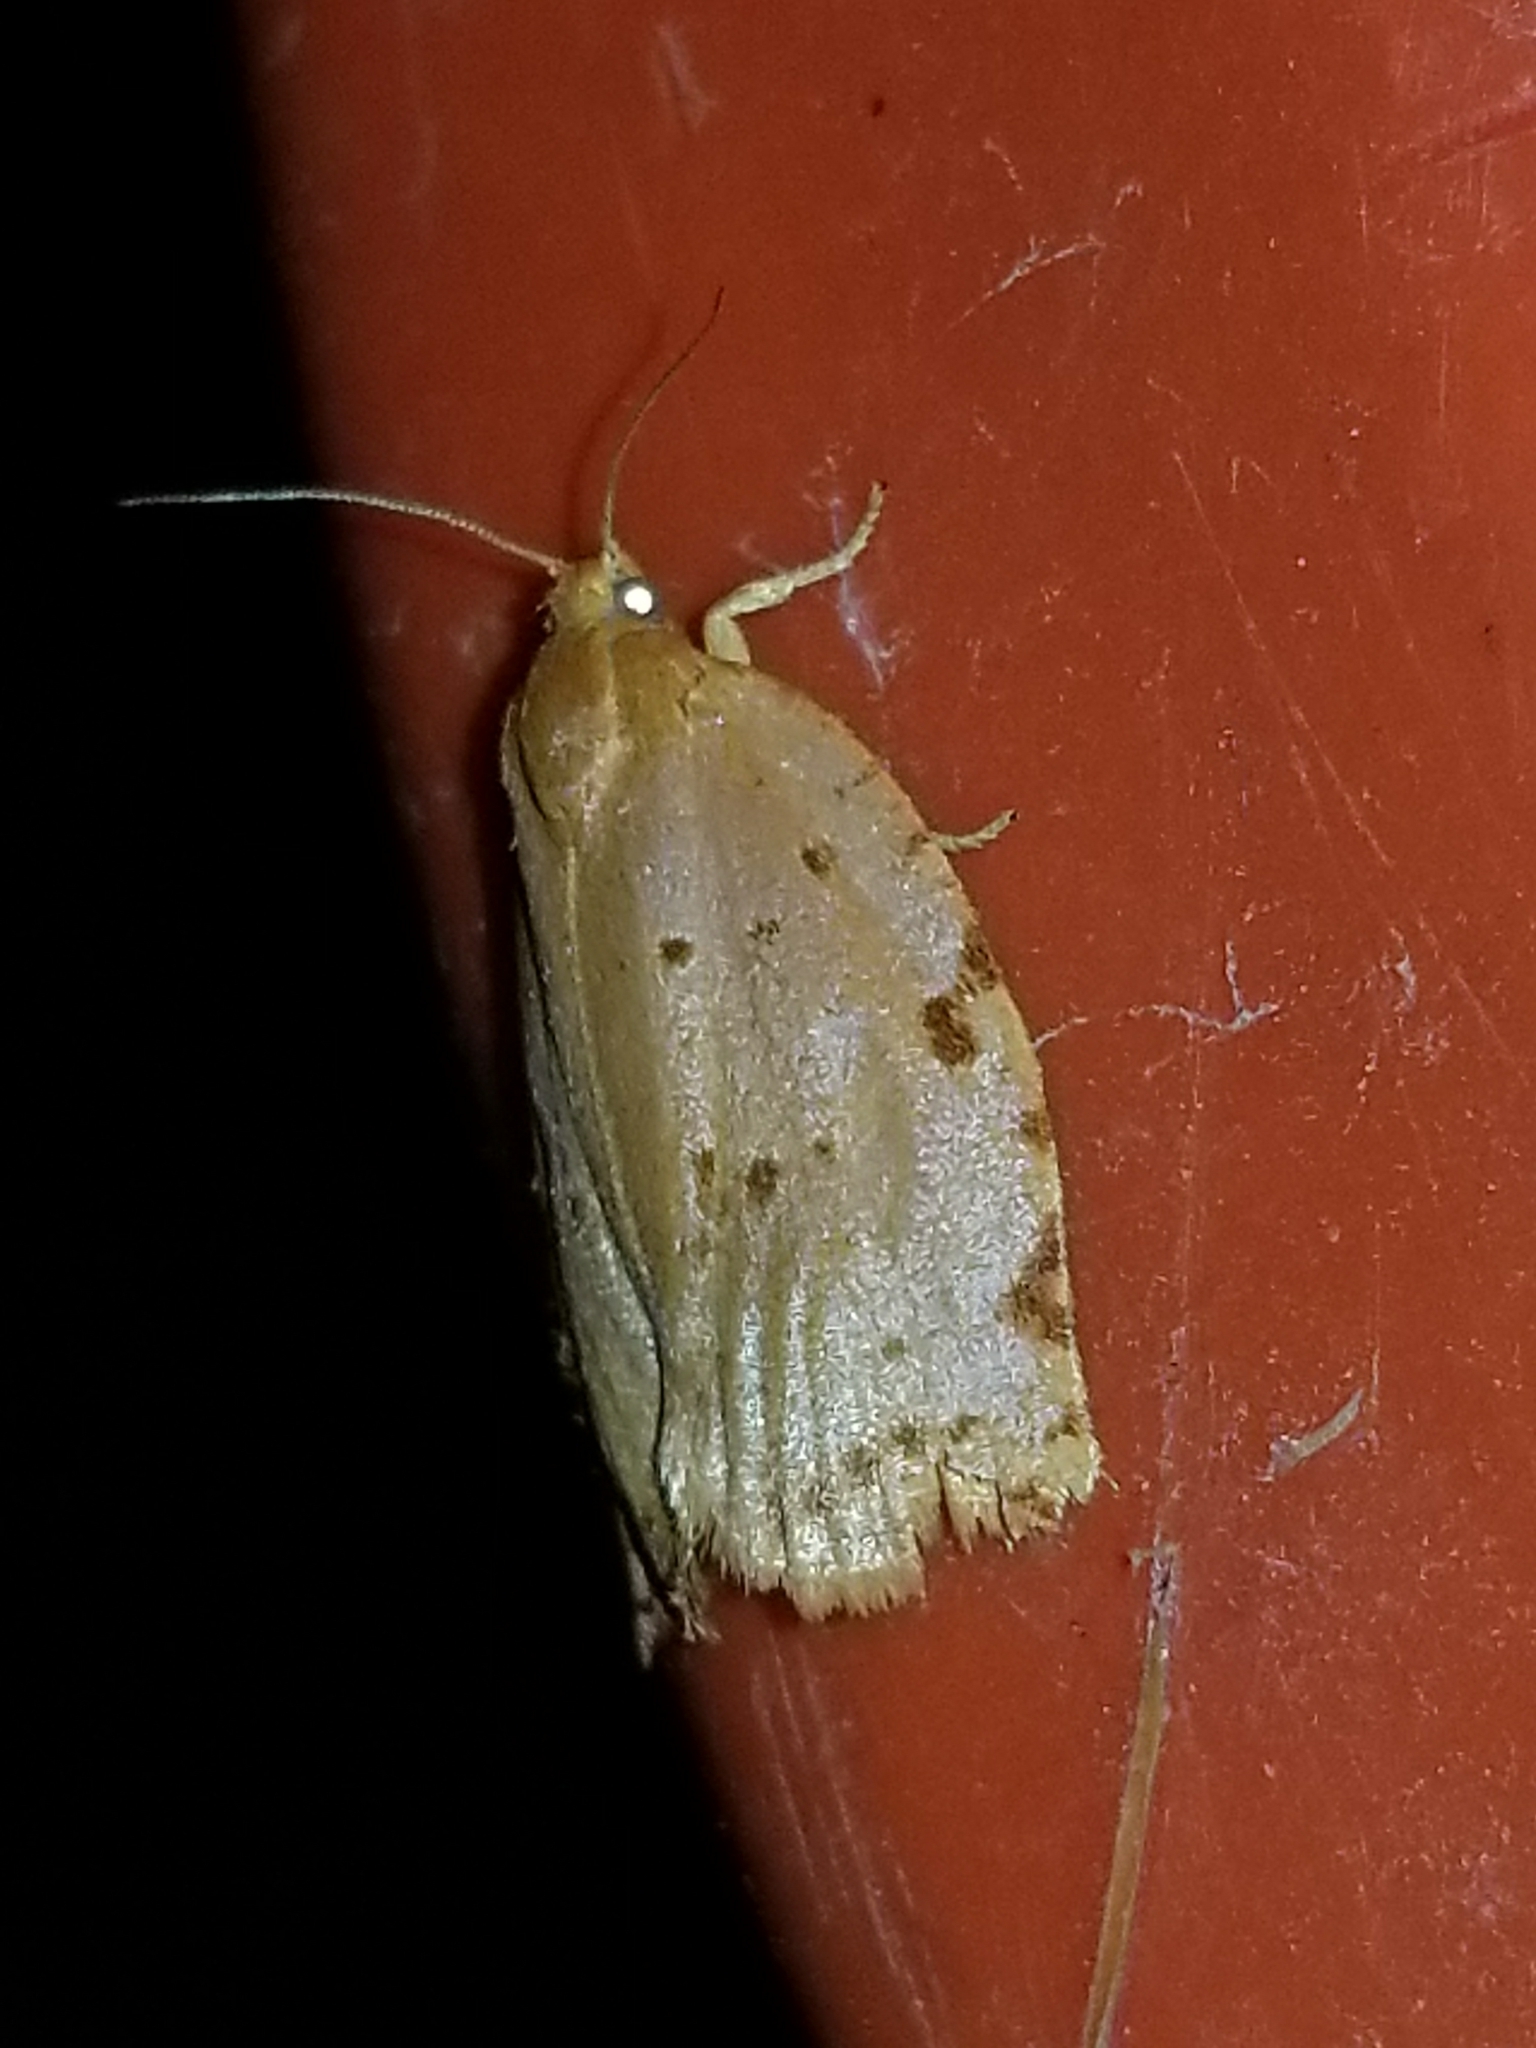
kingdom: Animalia
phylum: Arthropoda
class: Insecta
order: Lepidoptera
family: Tortricidae
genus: Archips
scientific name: Archips rileyana
